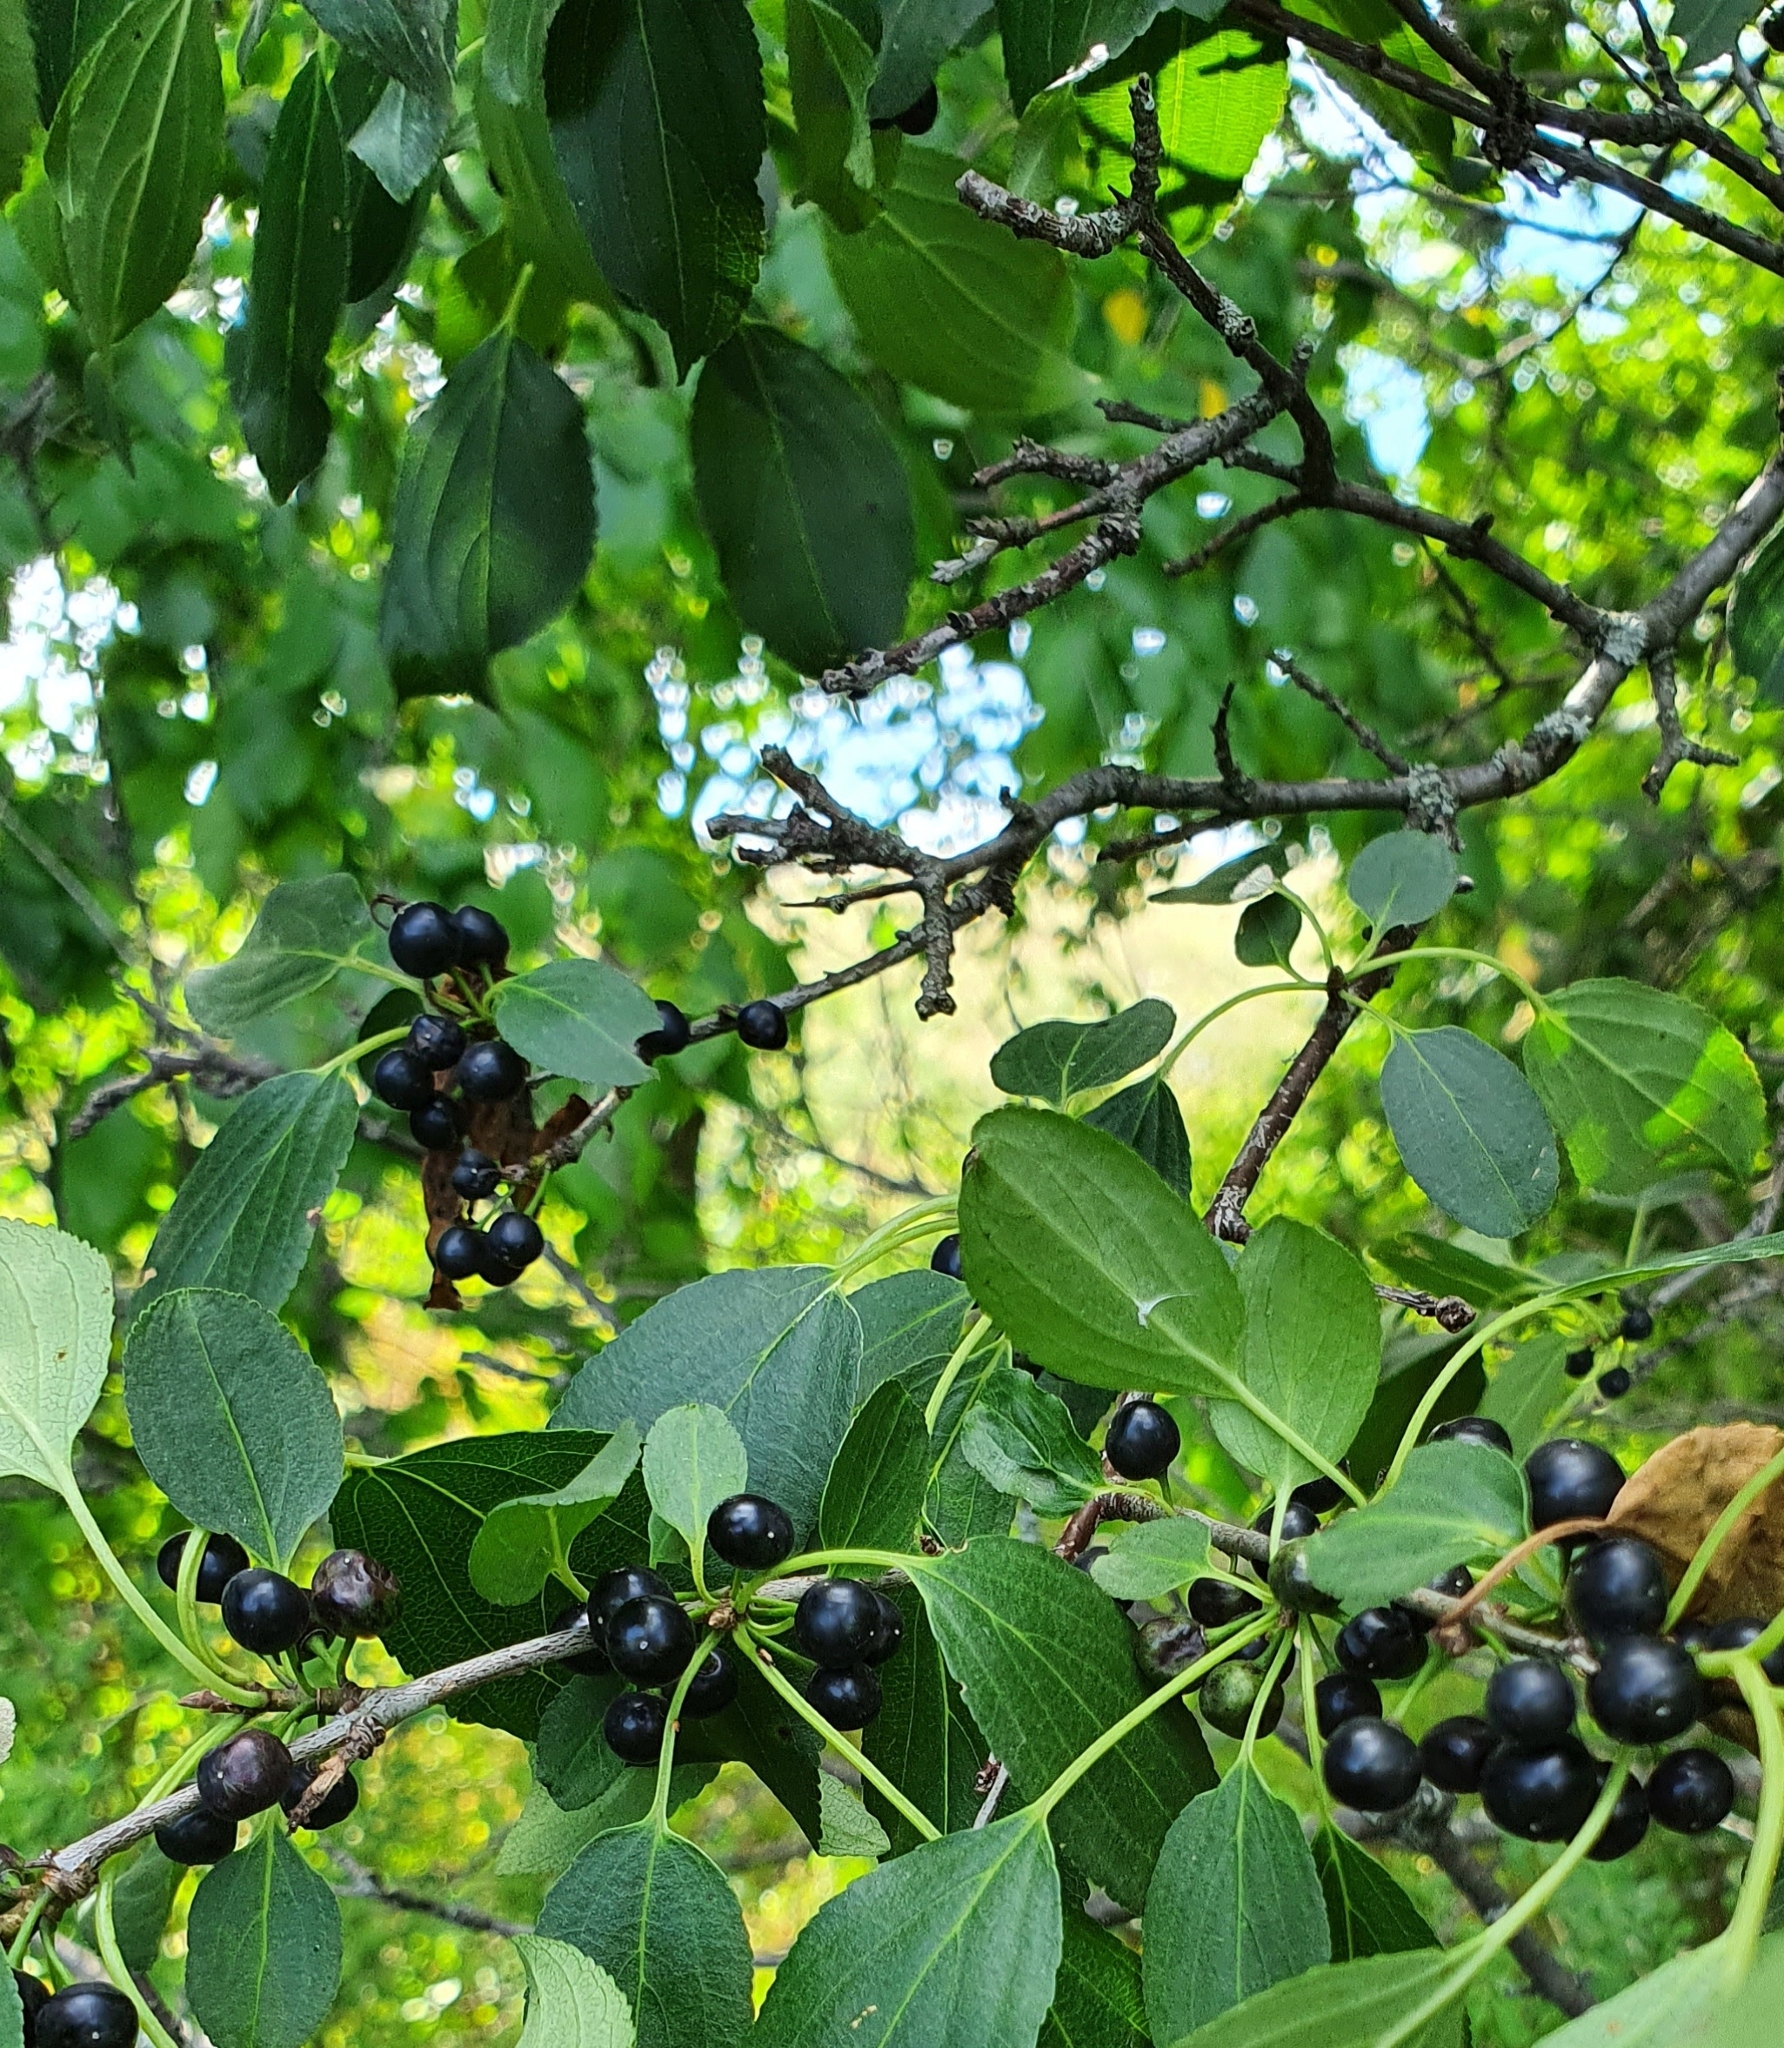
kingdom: Plantae
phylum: Tracheophyta
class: Magnoliopsida
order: Rosales
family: Rhamnaceae
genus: Rhamnus
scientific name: Rhamnus cathartica
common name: Common buckthorn
